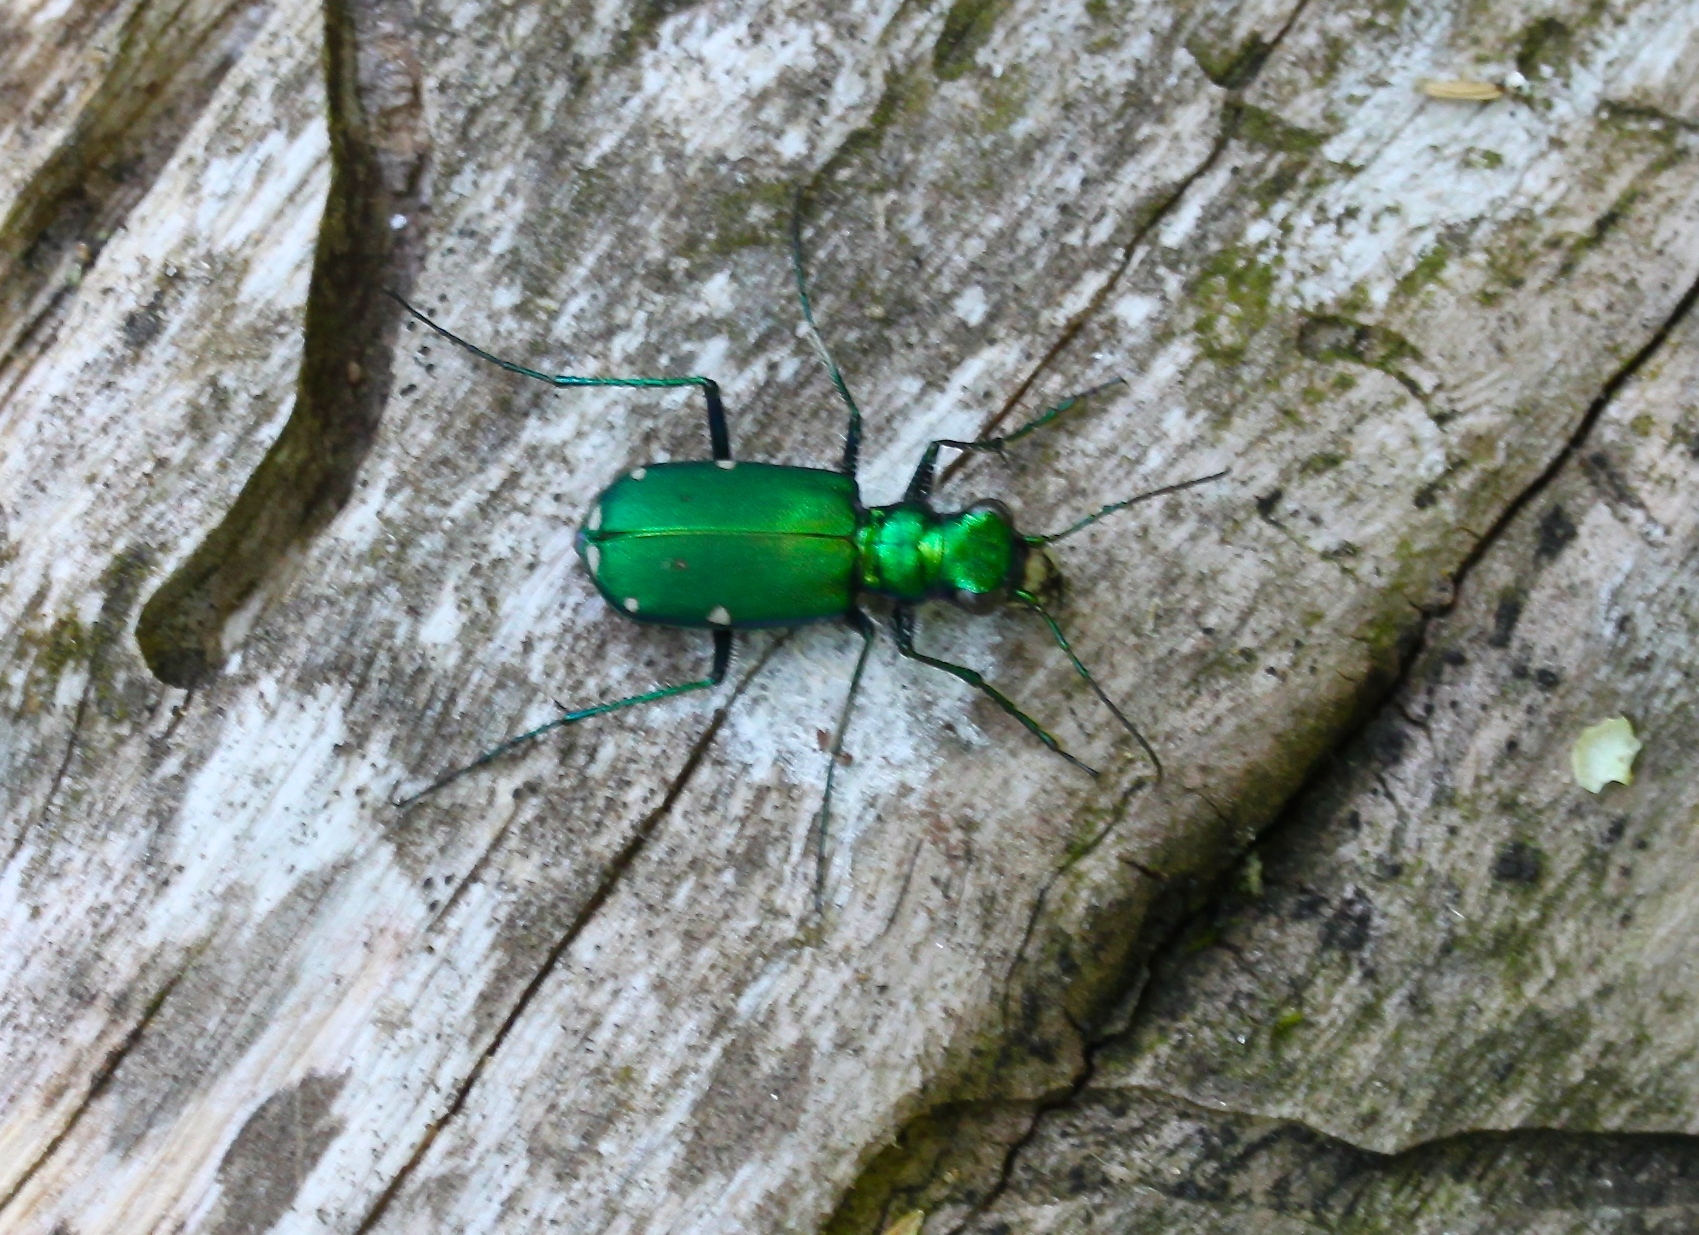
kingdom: Animalia
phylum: Arthropoda
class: Insecta
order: Coleoptera
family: Carabidae
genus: Cicindela
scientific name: Cicindela sexguttata
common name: Six-spotted tiger beetle
